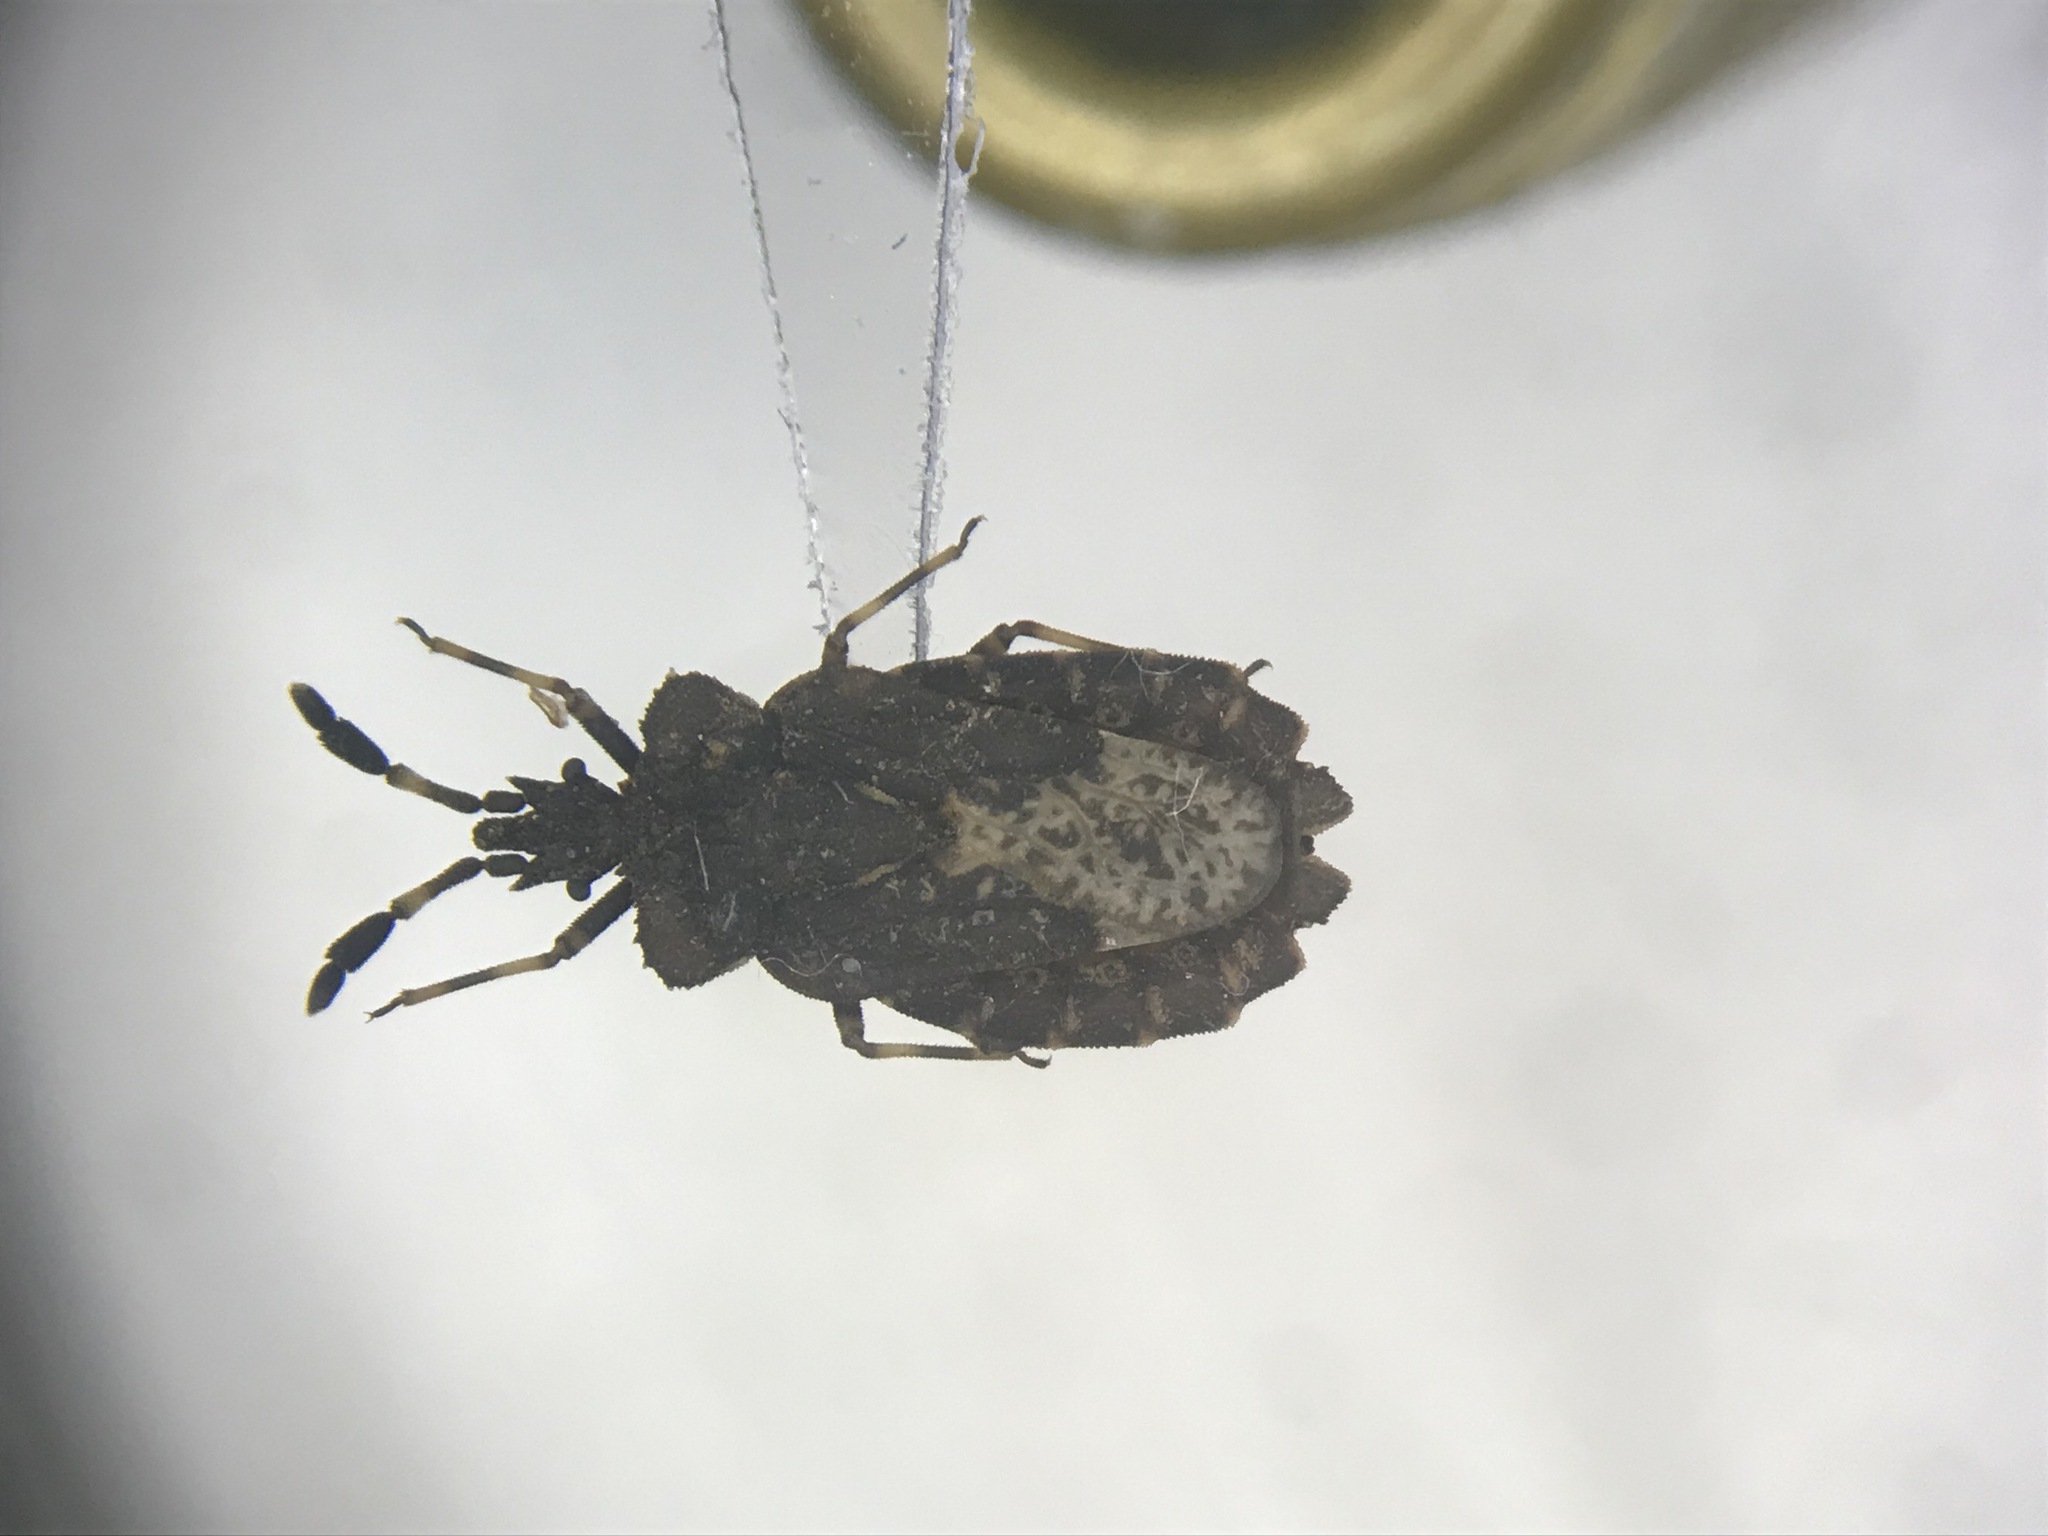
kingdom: Animalia
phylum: Arthropoda
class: Insecta
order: Hemiptera
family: Aradidae
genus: Aradus
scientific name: Aradus quadrilineatus
